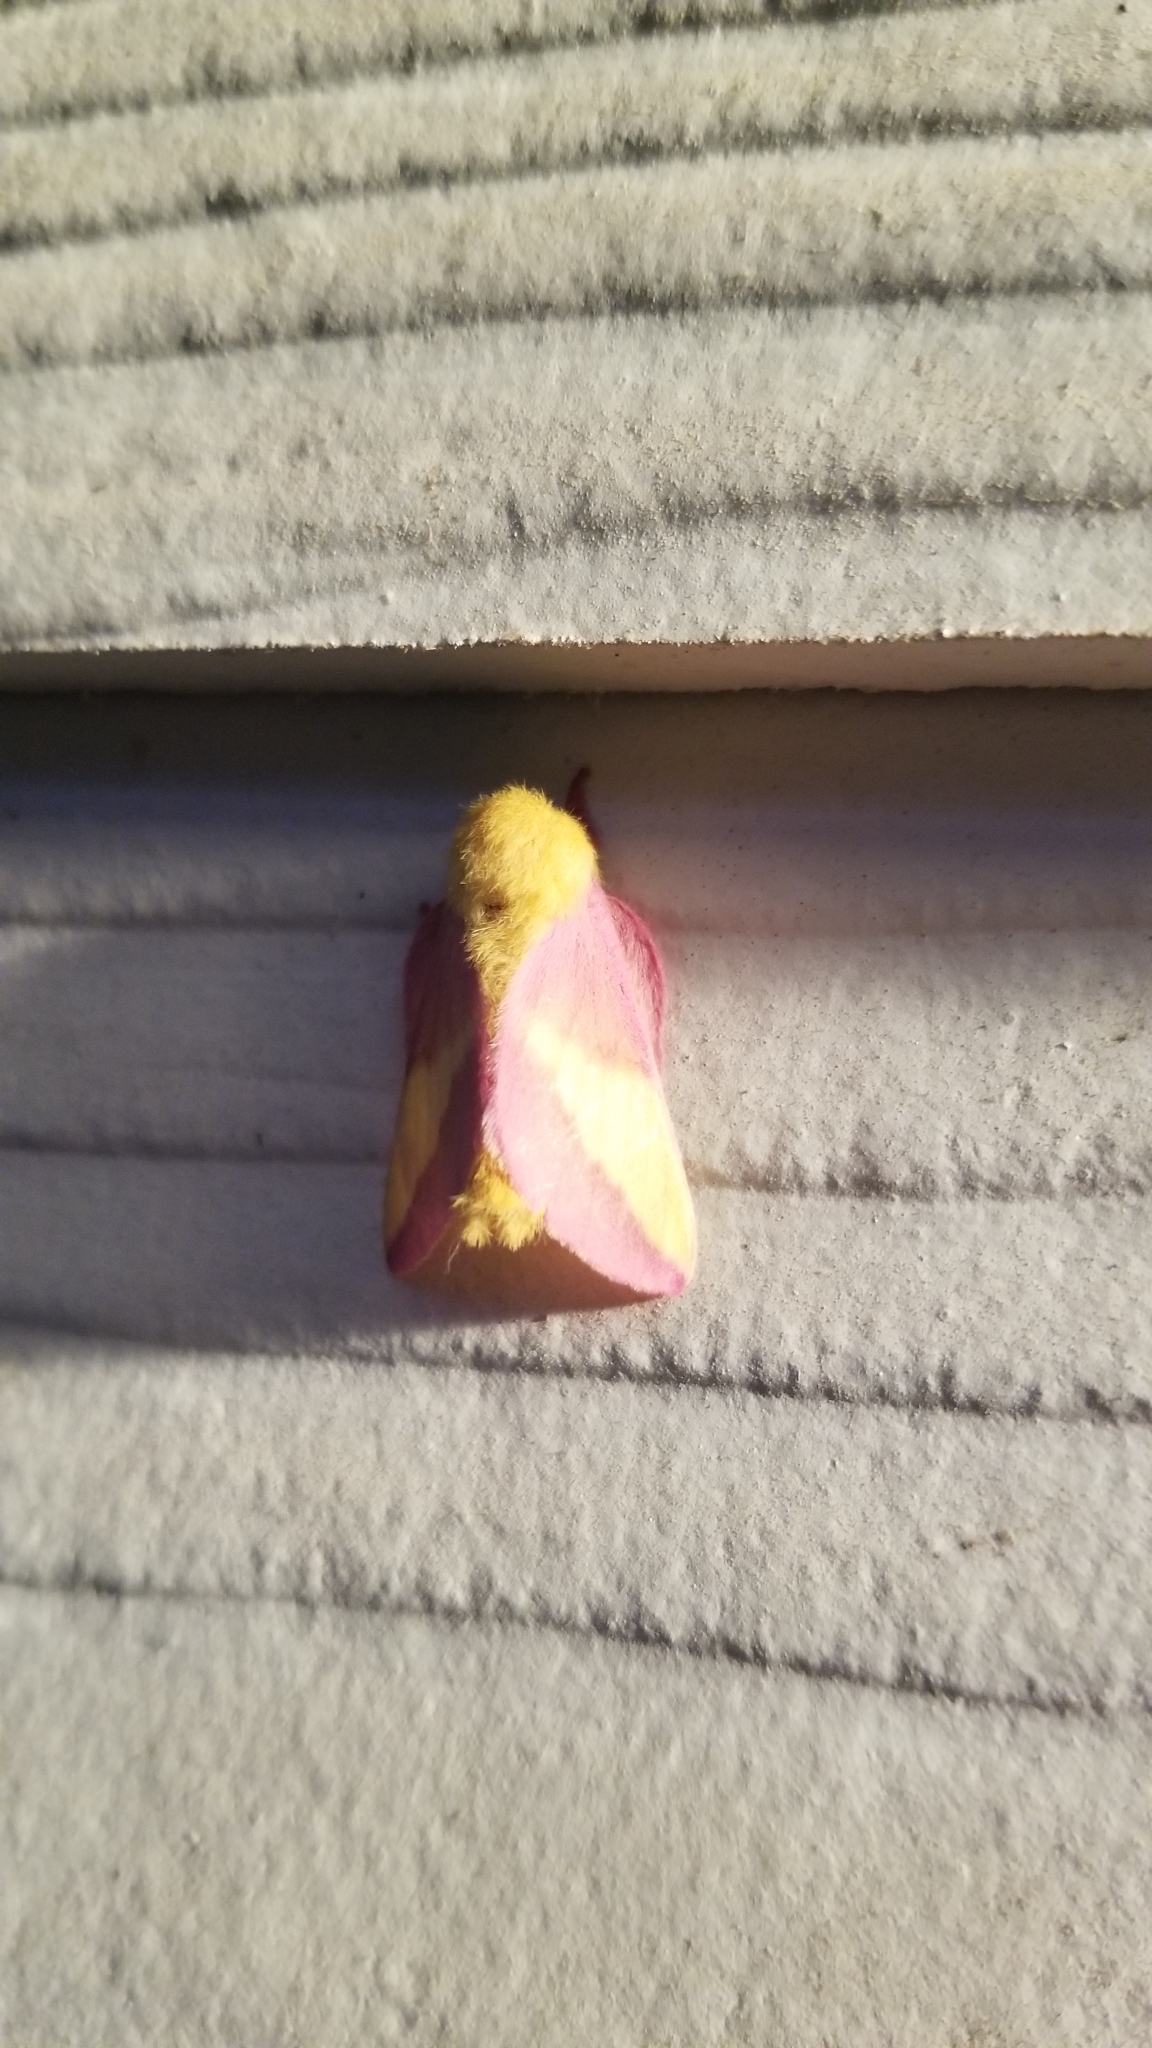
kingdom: Animalia
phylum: Arthropoda
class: Insecta
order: Lepidoptera
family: Saturniidae
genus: Dryocampa
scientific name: Dryocampa rubicunda
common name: Rosy maple moth
